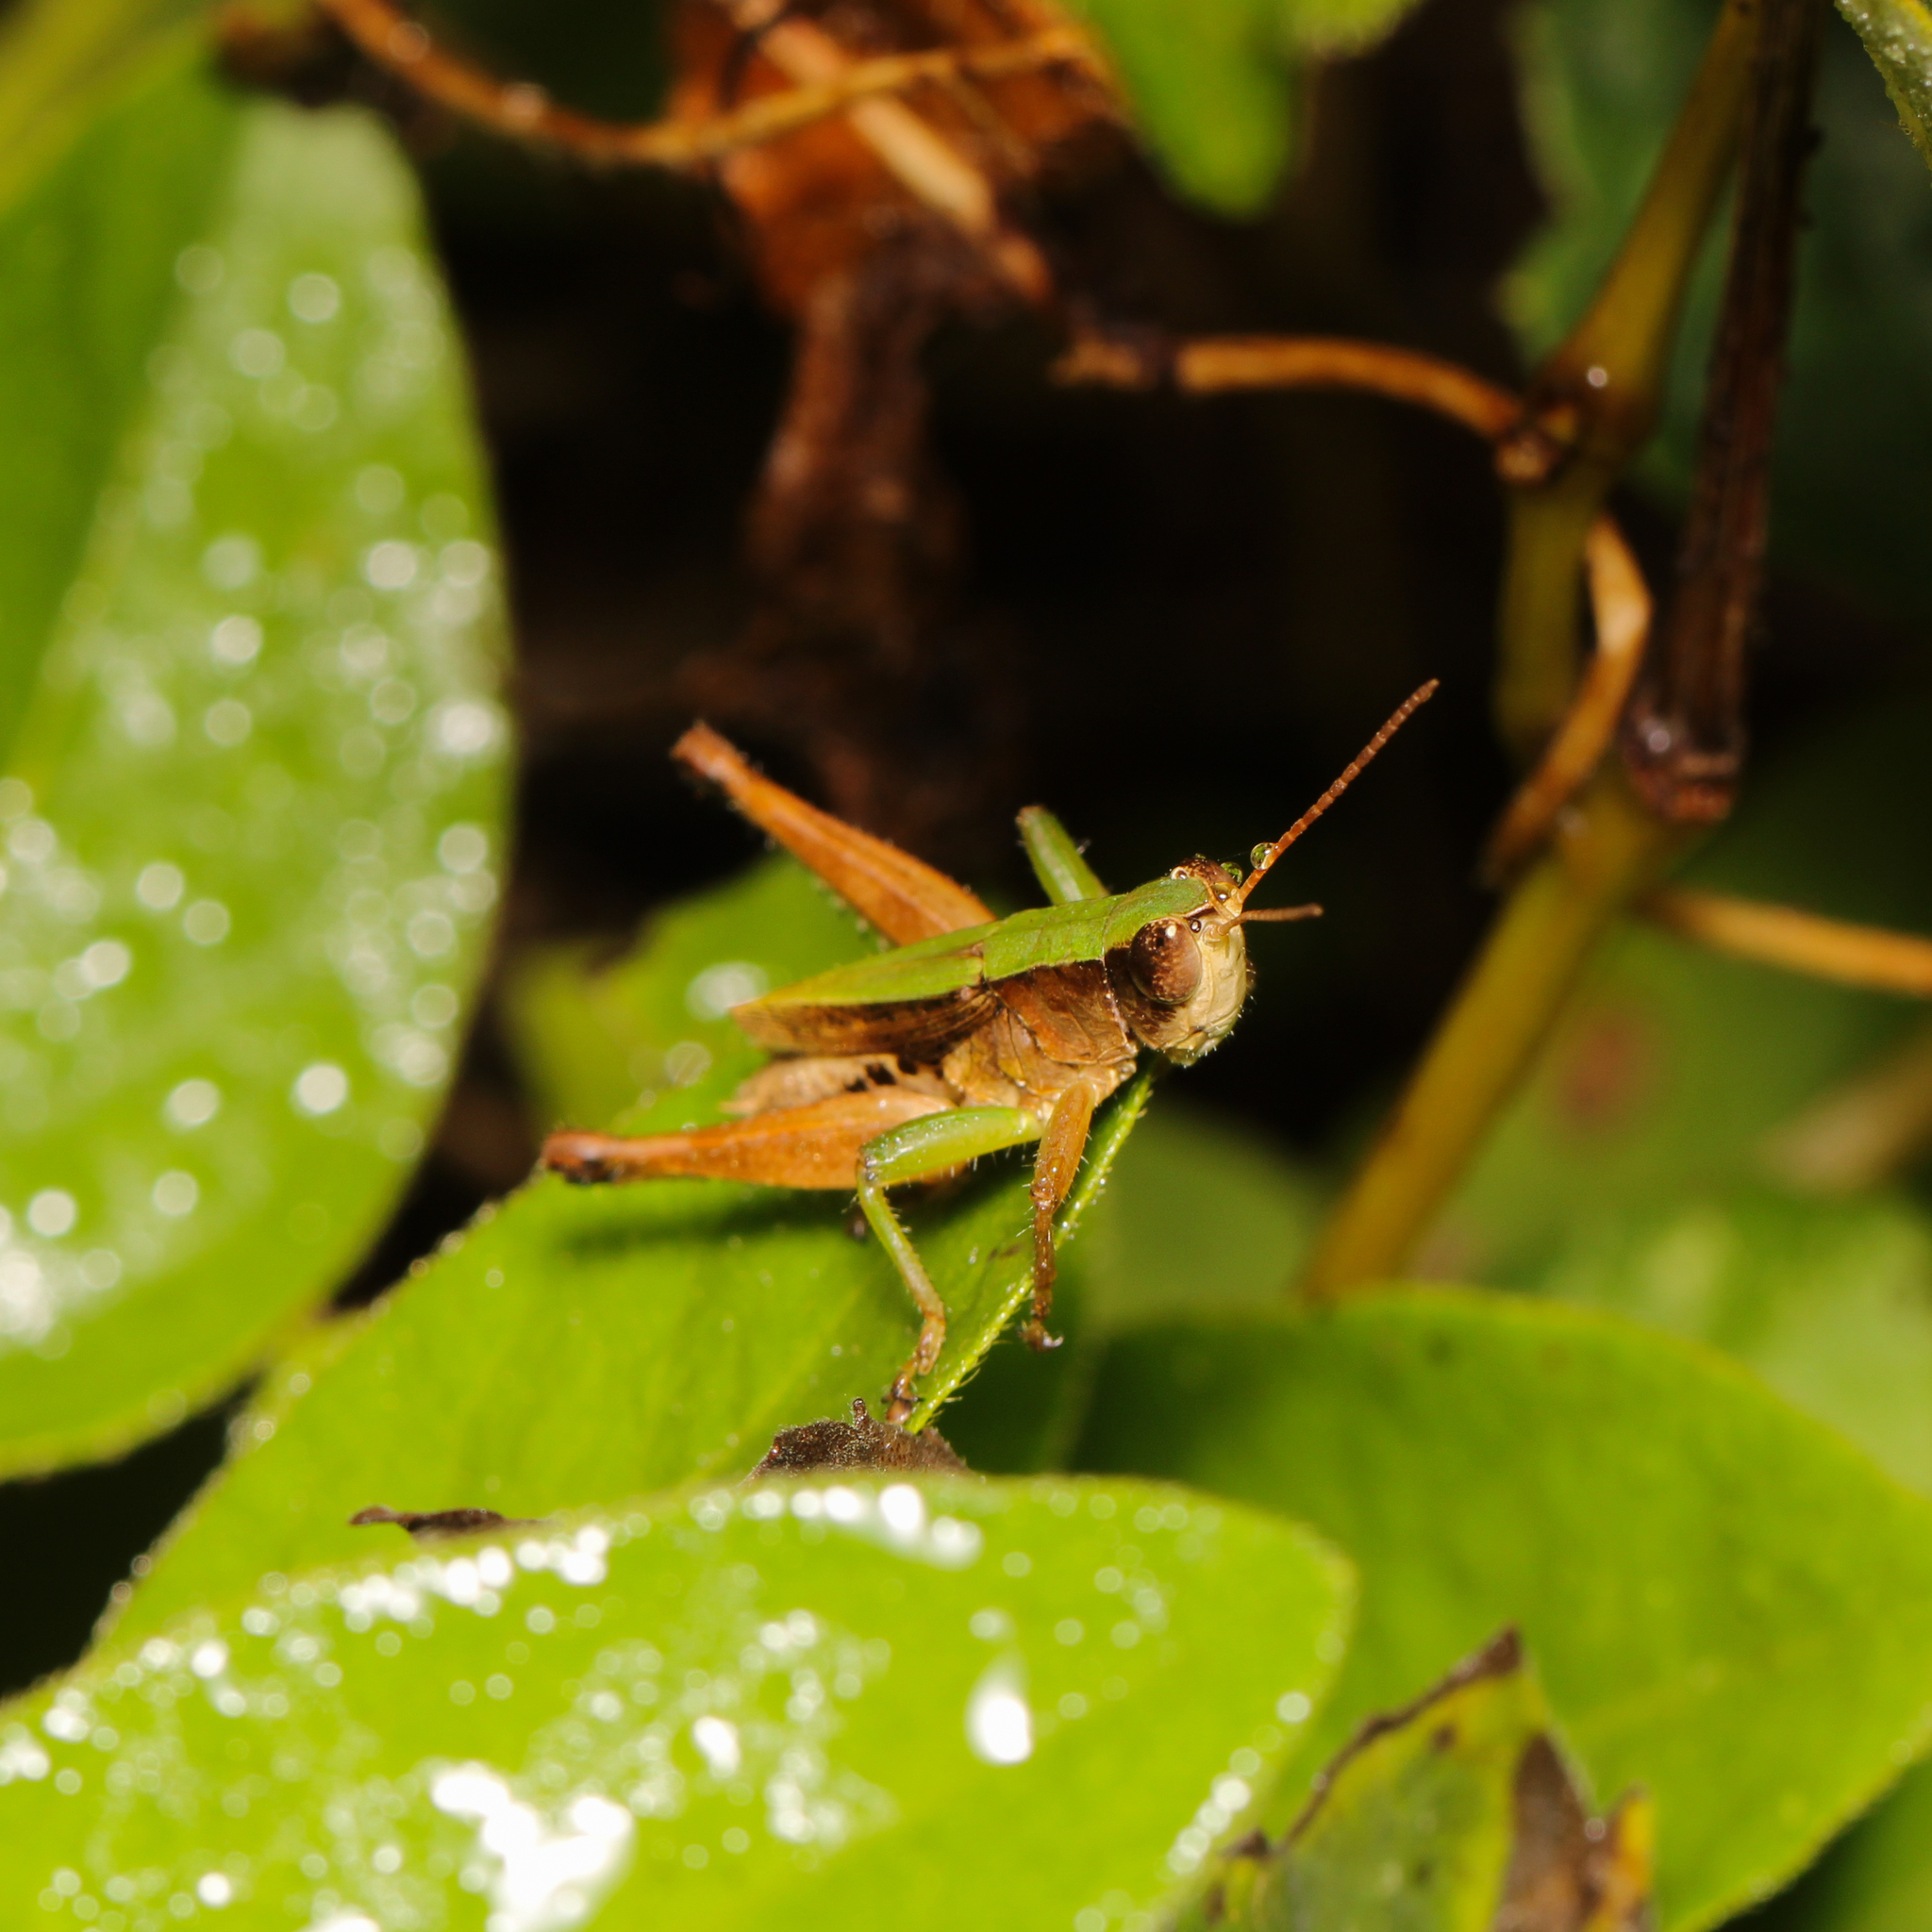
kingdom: Animalia
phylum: Arthropoda
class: Insecta
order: Orthoptera
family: Acrididae
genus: Dichromorpha
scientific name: Dichromorpha viridis
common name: Short-winged green grasshopper
